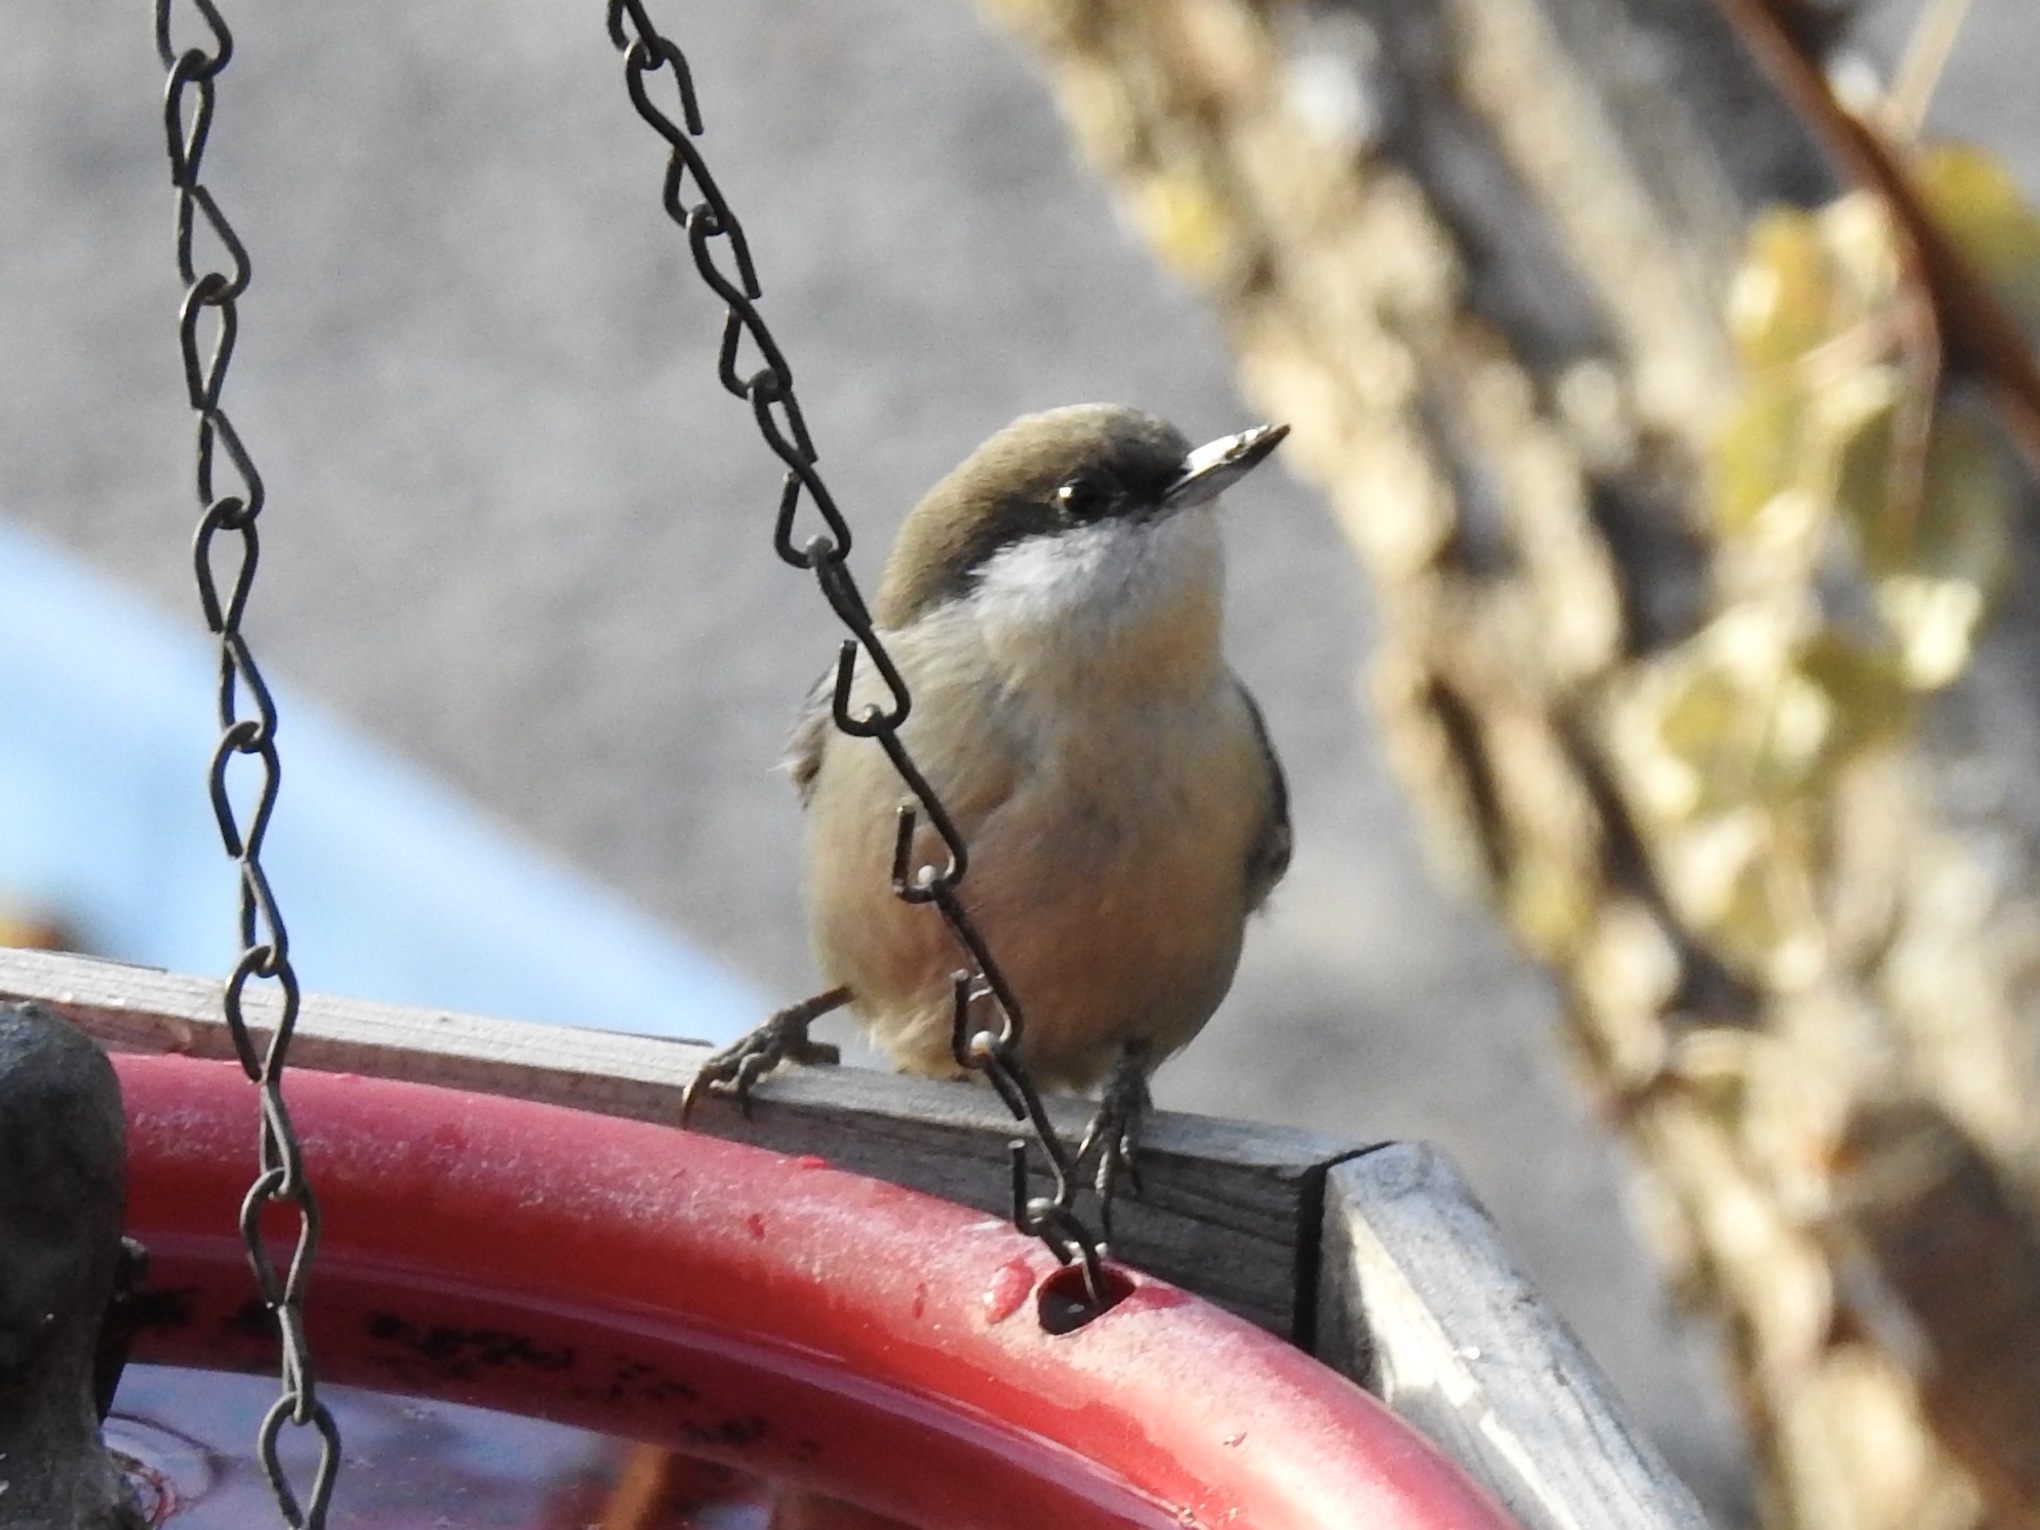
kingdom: Animalia
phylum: Chordata
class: Aves
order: Passeriformes
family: Sittidae
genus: Sitta
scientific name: Sitta pygmaea
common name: Pygmy nuthatch
